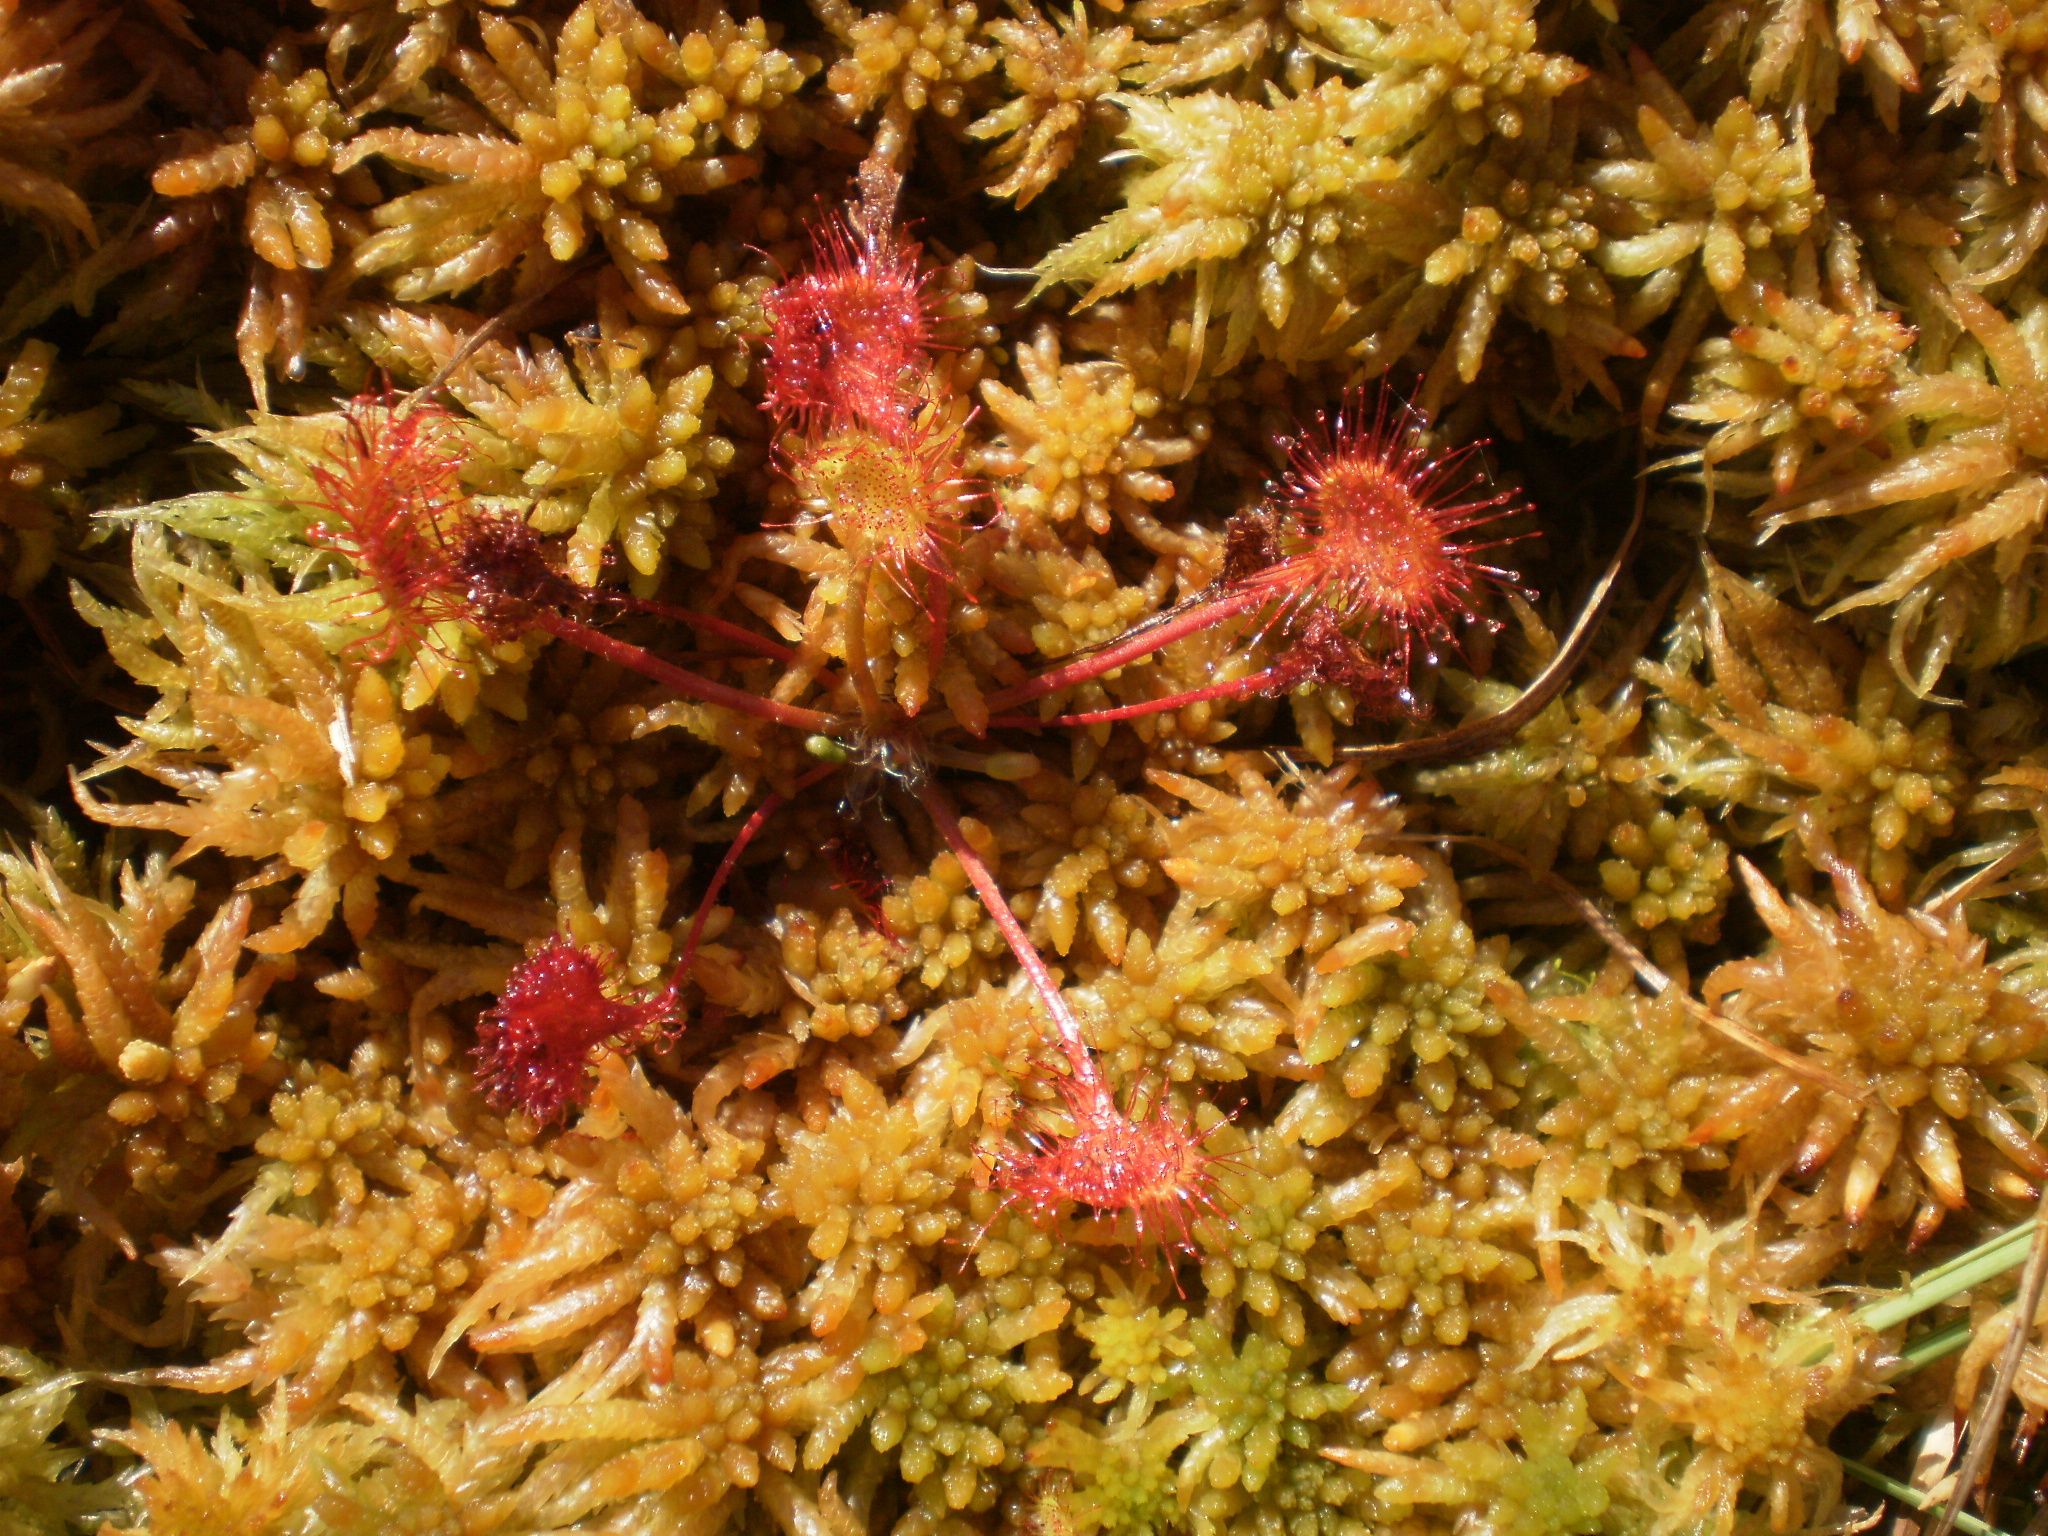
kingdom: Plantae
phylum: Tracheophyta
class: Magnoliopsida
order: Caryophyllales
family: Droseraceae
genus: Drosera
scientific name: Drosera rotundifolia
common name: Round-leaved sundew
